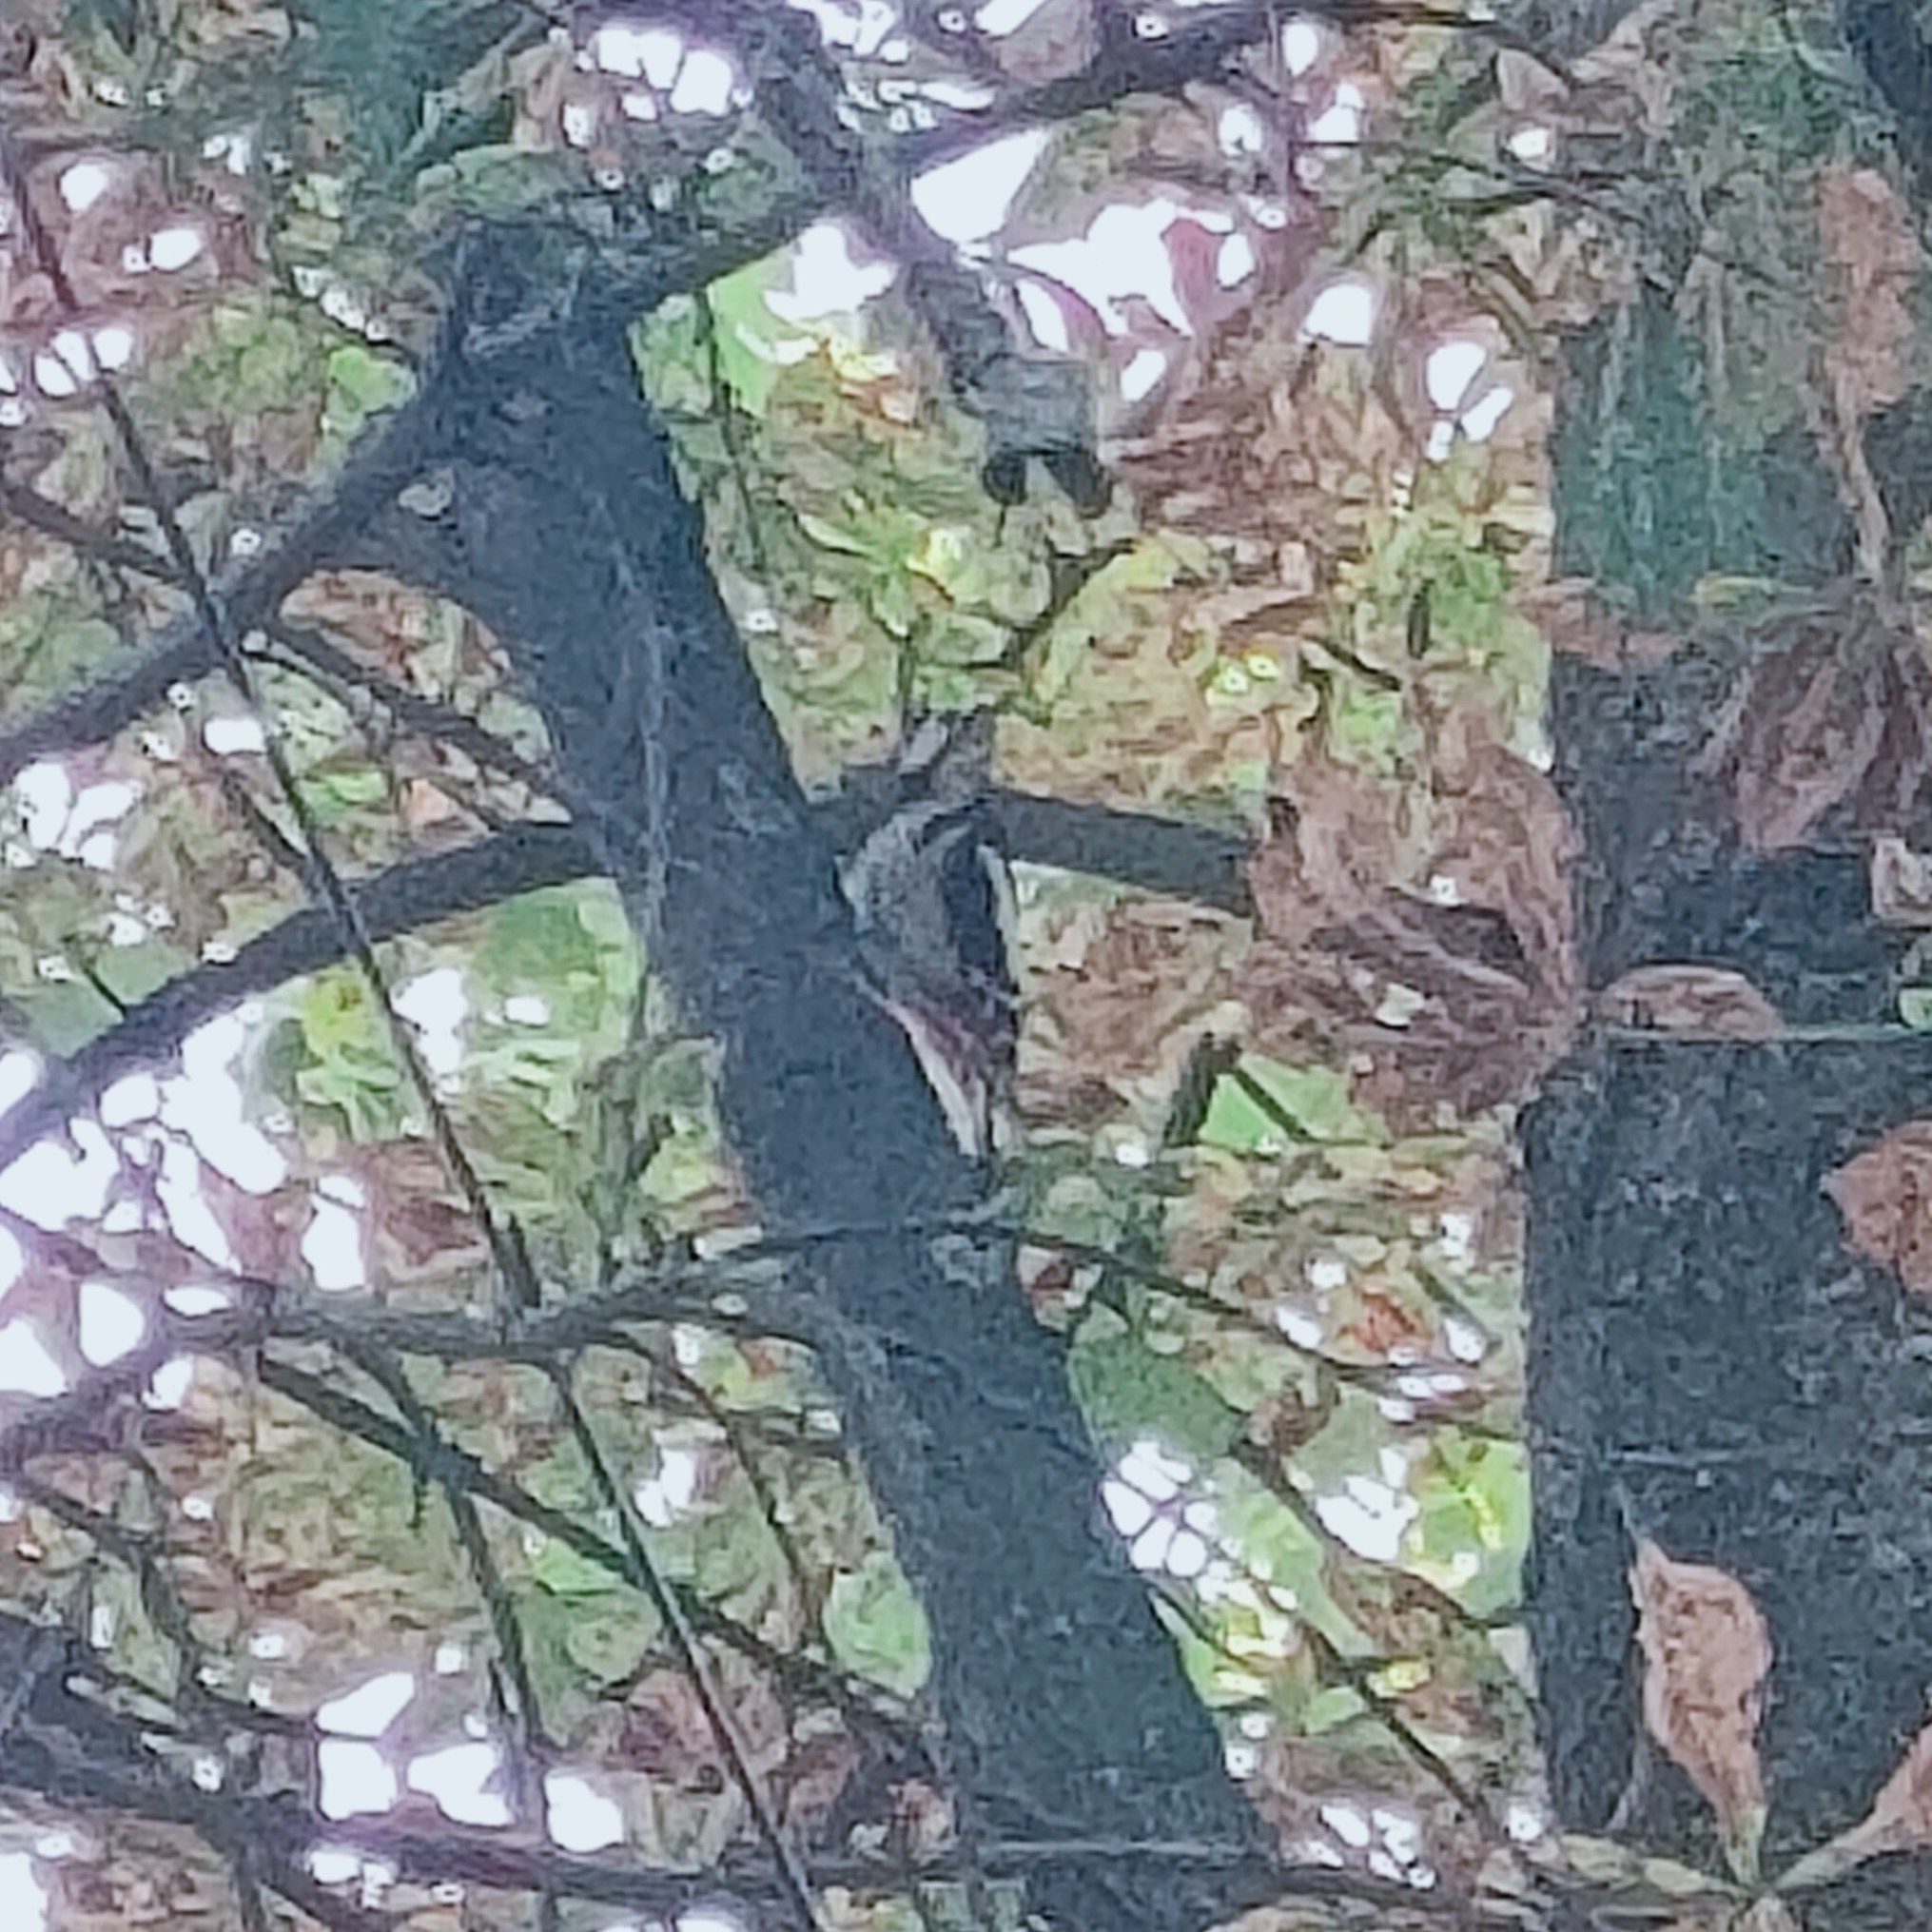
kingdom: Animalia
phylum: Chordata
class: Aves
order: Piciformes
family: Picidae
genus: Dendrocopos
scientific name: Dendrocopos major
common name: Great spotted woodpecker
